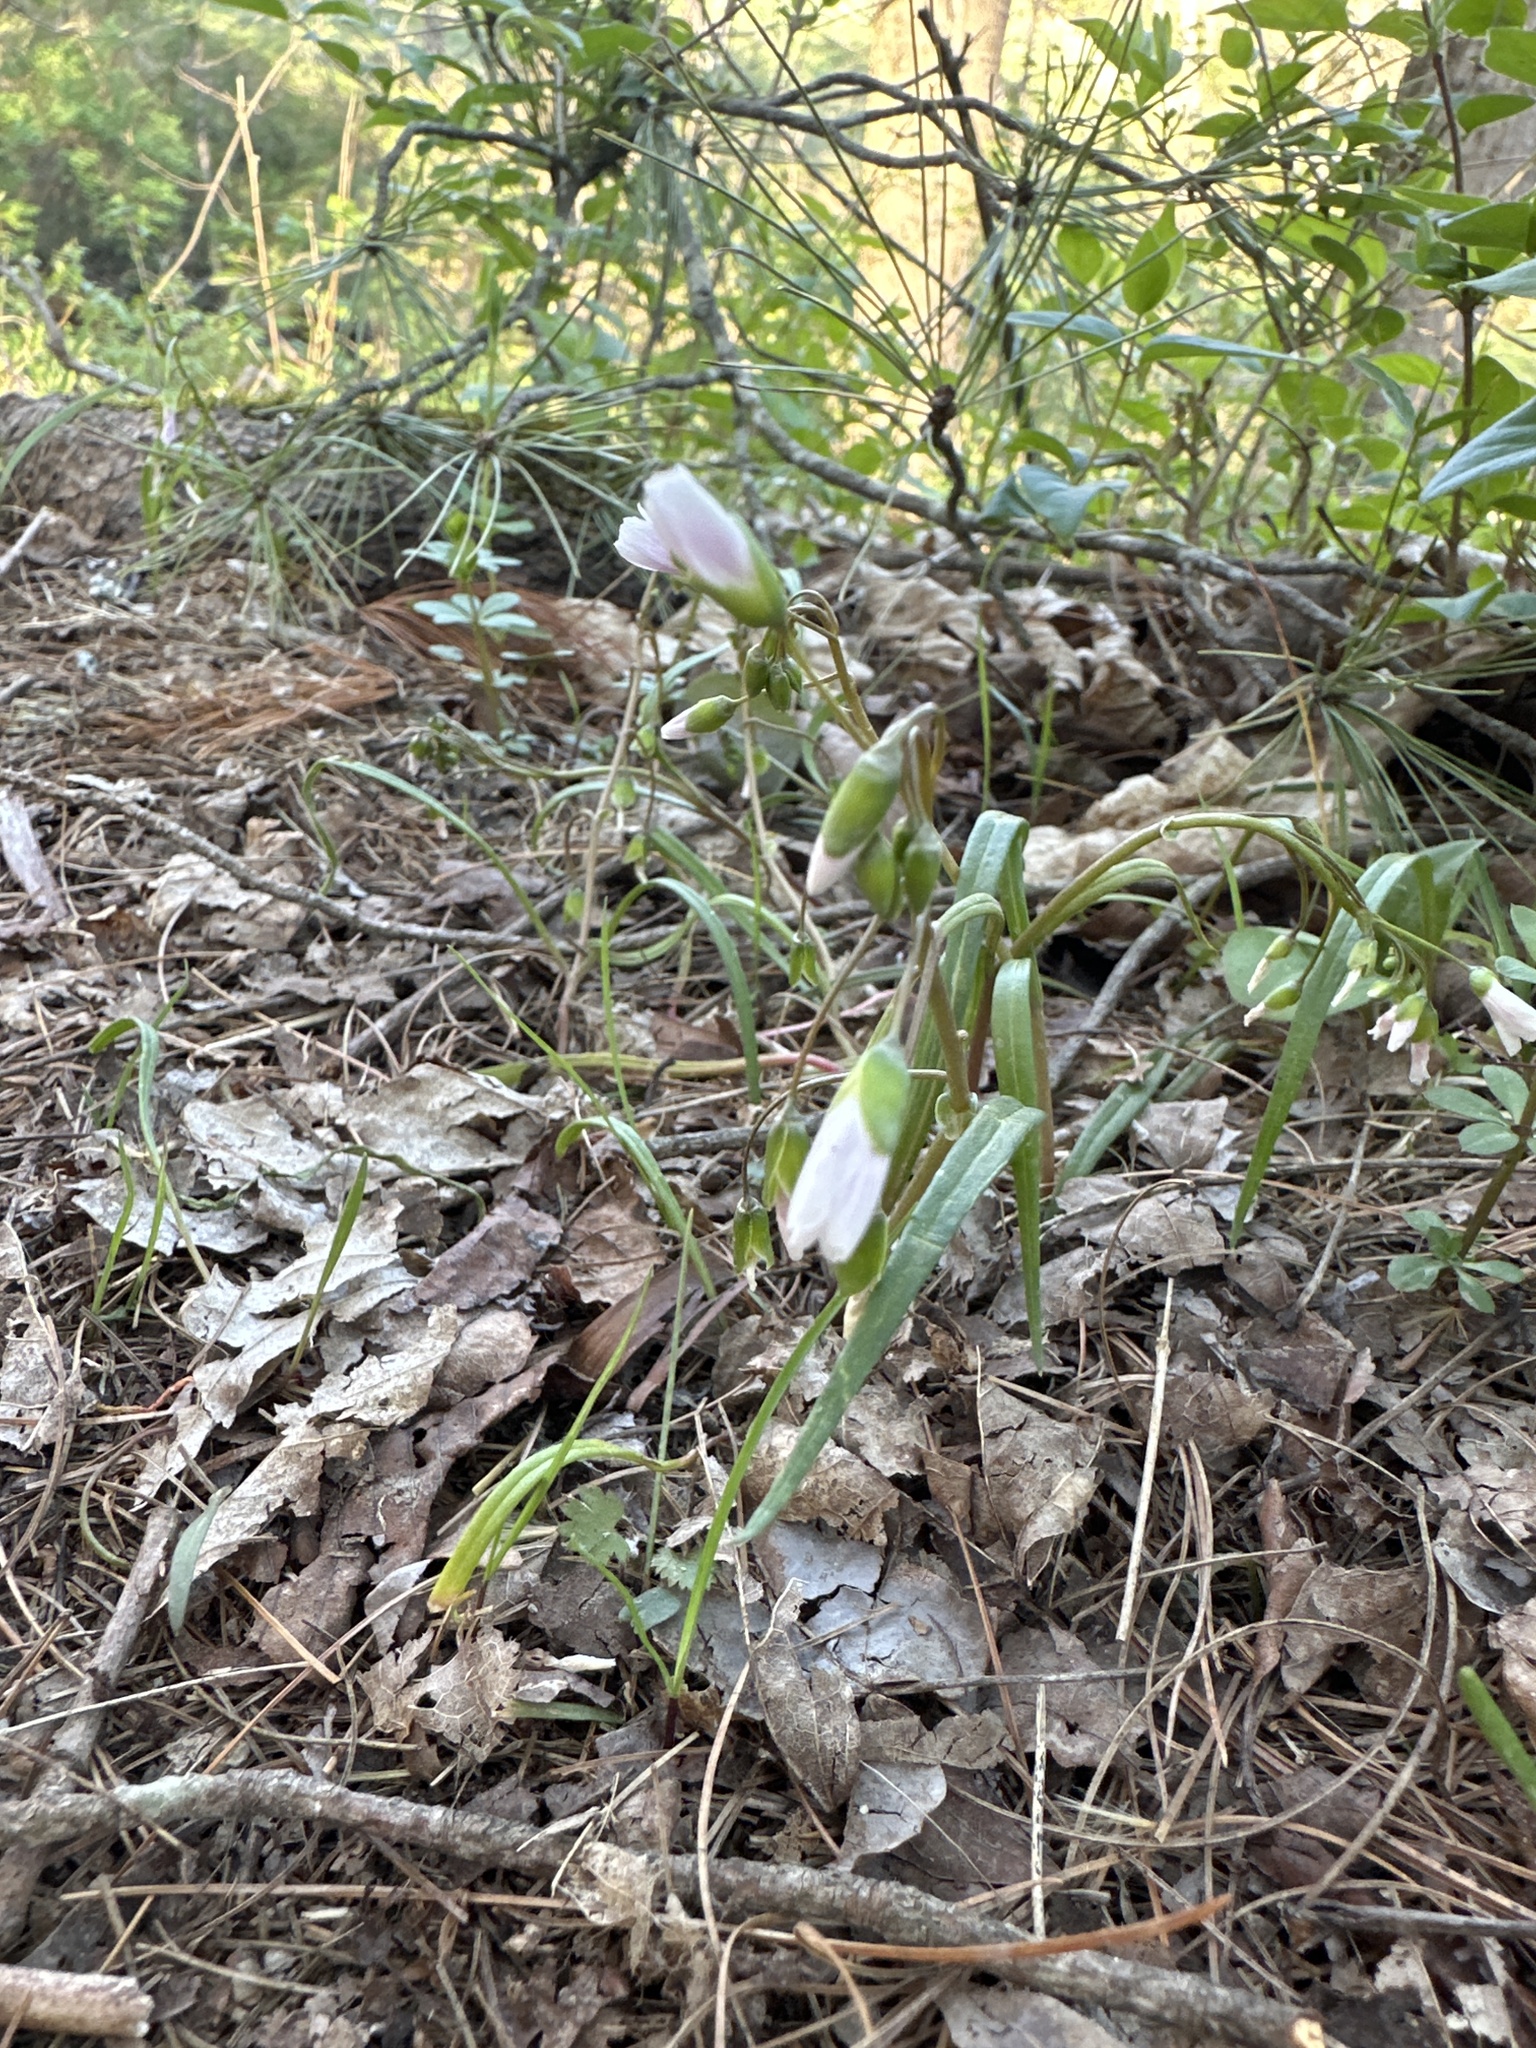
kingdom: Plantae
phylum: Tracheophyta
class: Magnoliopsida
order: Caryophyllales
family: Montiaceae
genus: Claytonia
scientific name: Claytonia virginica
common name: Virginia springbeauty
